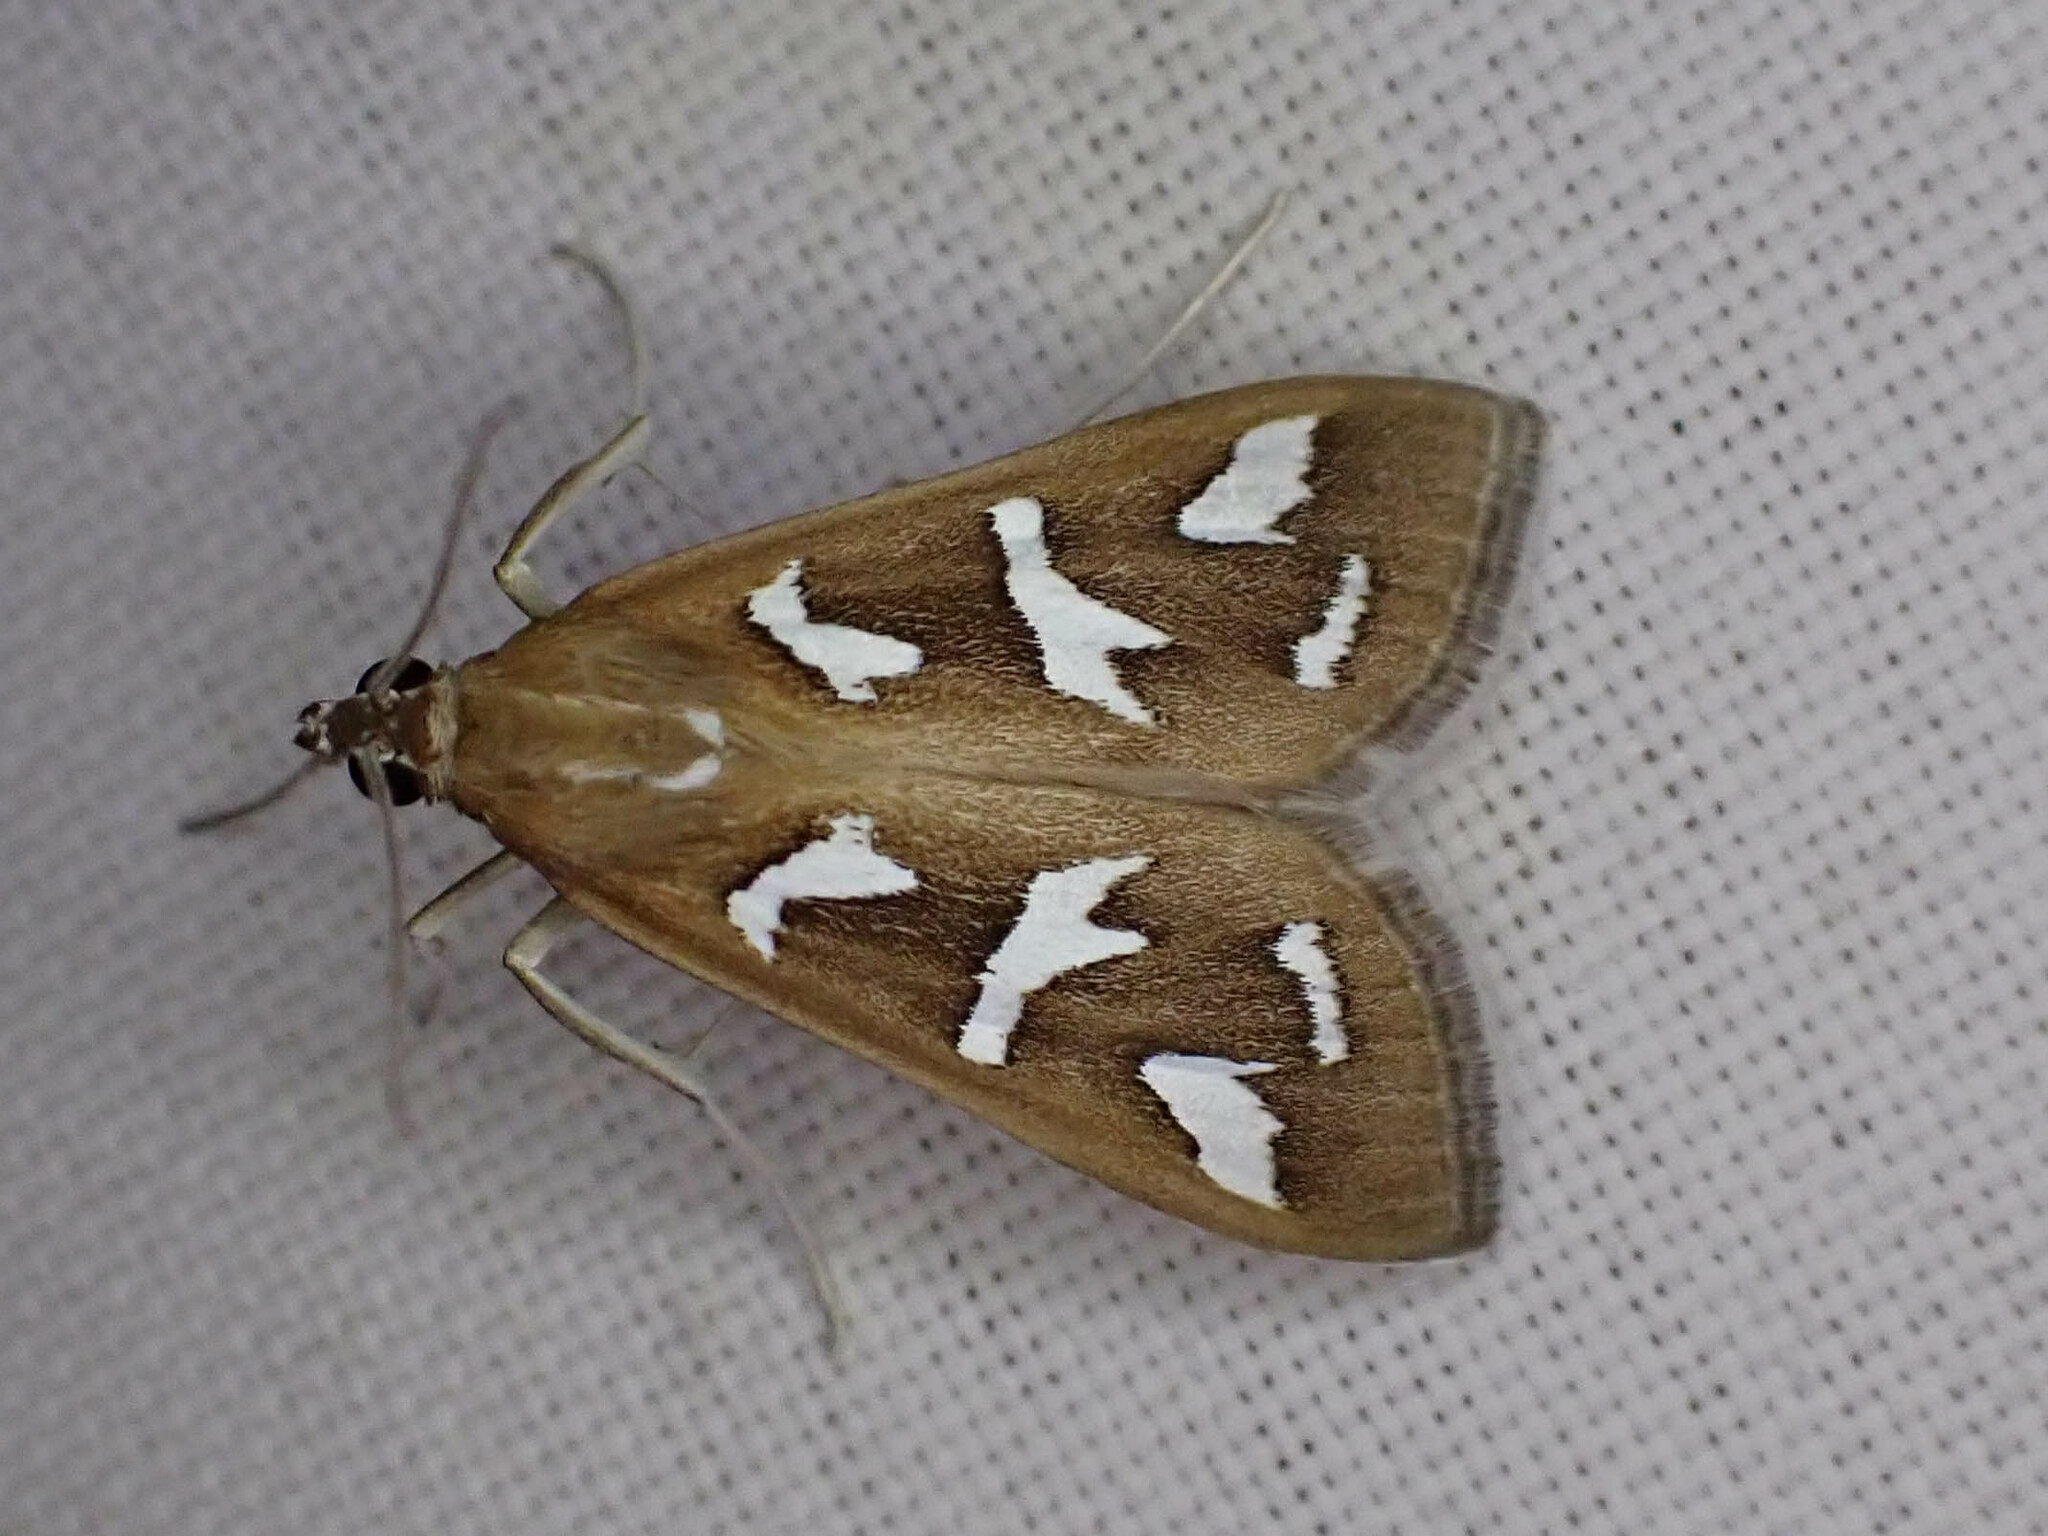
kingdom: Animalia
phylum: Arthropoda
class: Insecta
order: Lepidoptera
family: Crambidae
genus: Diastictis
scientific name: Diastictis fracturalis
